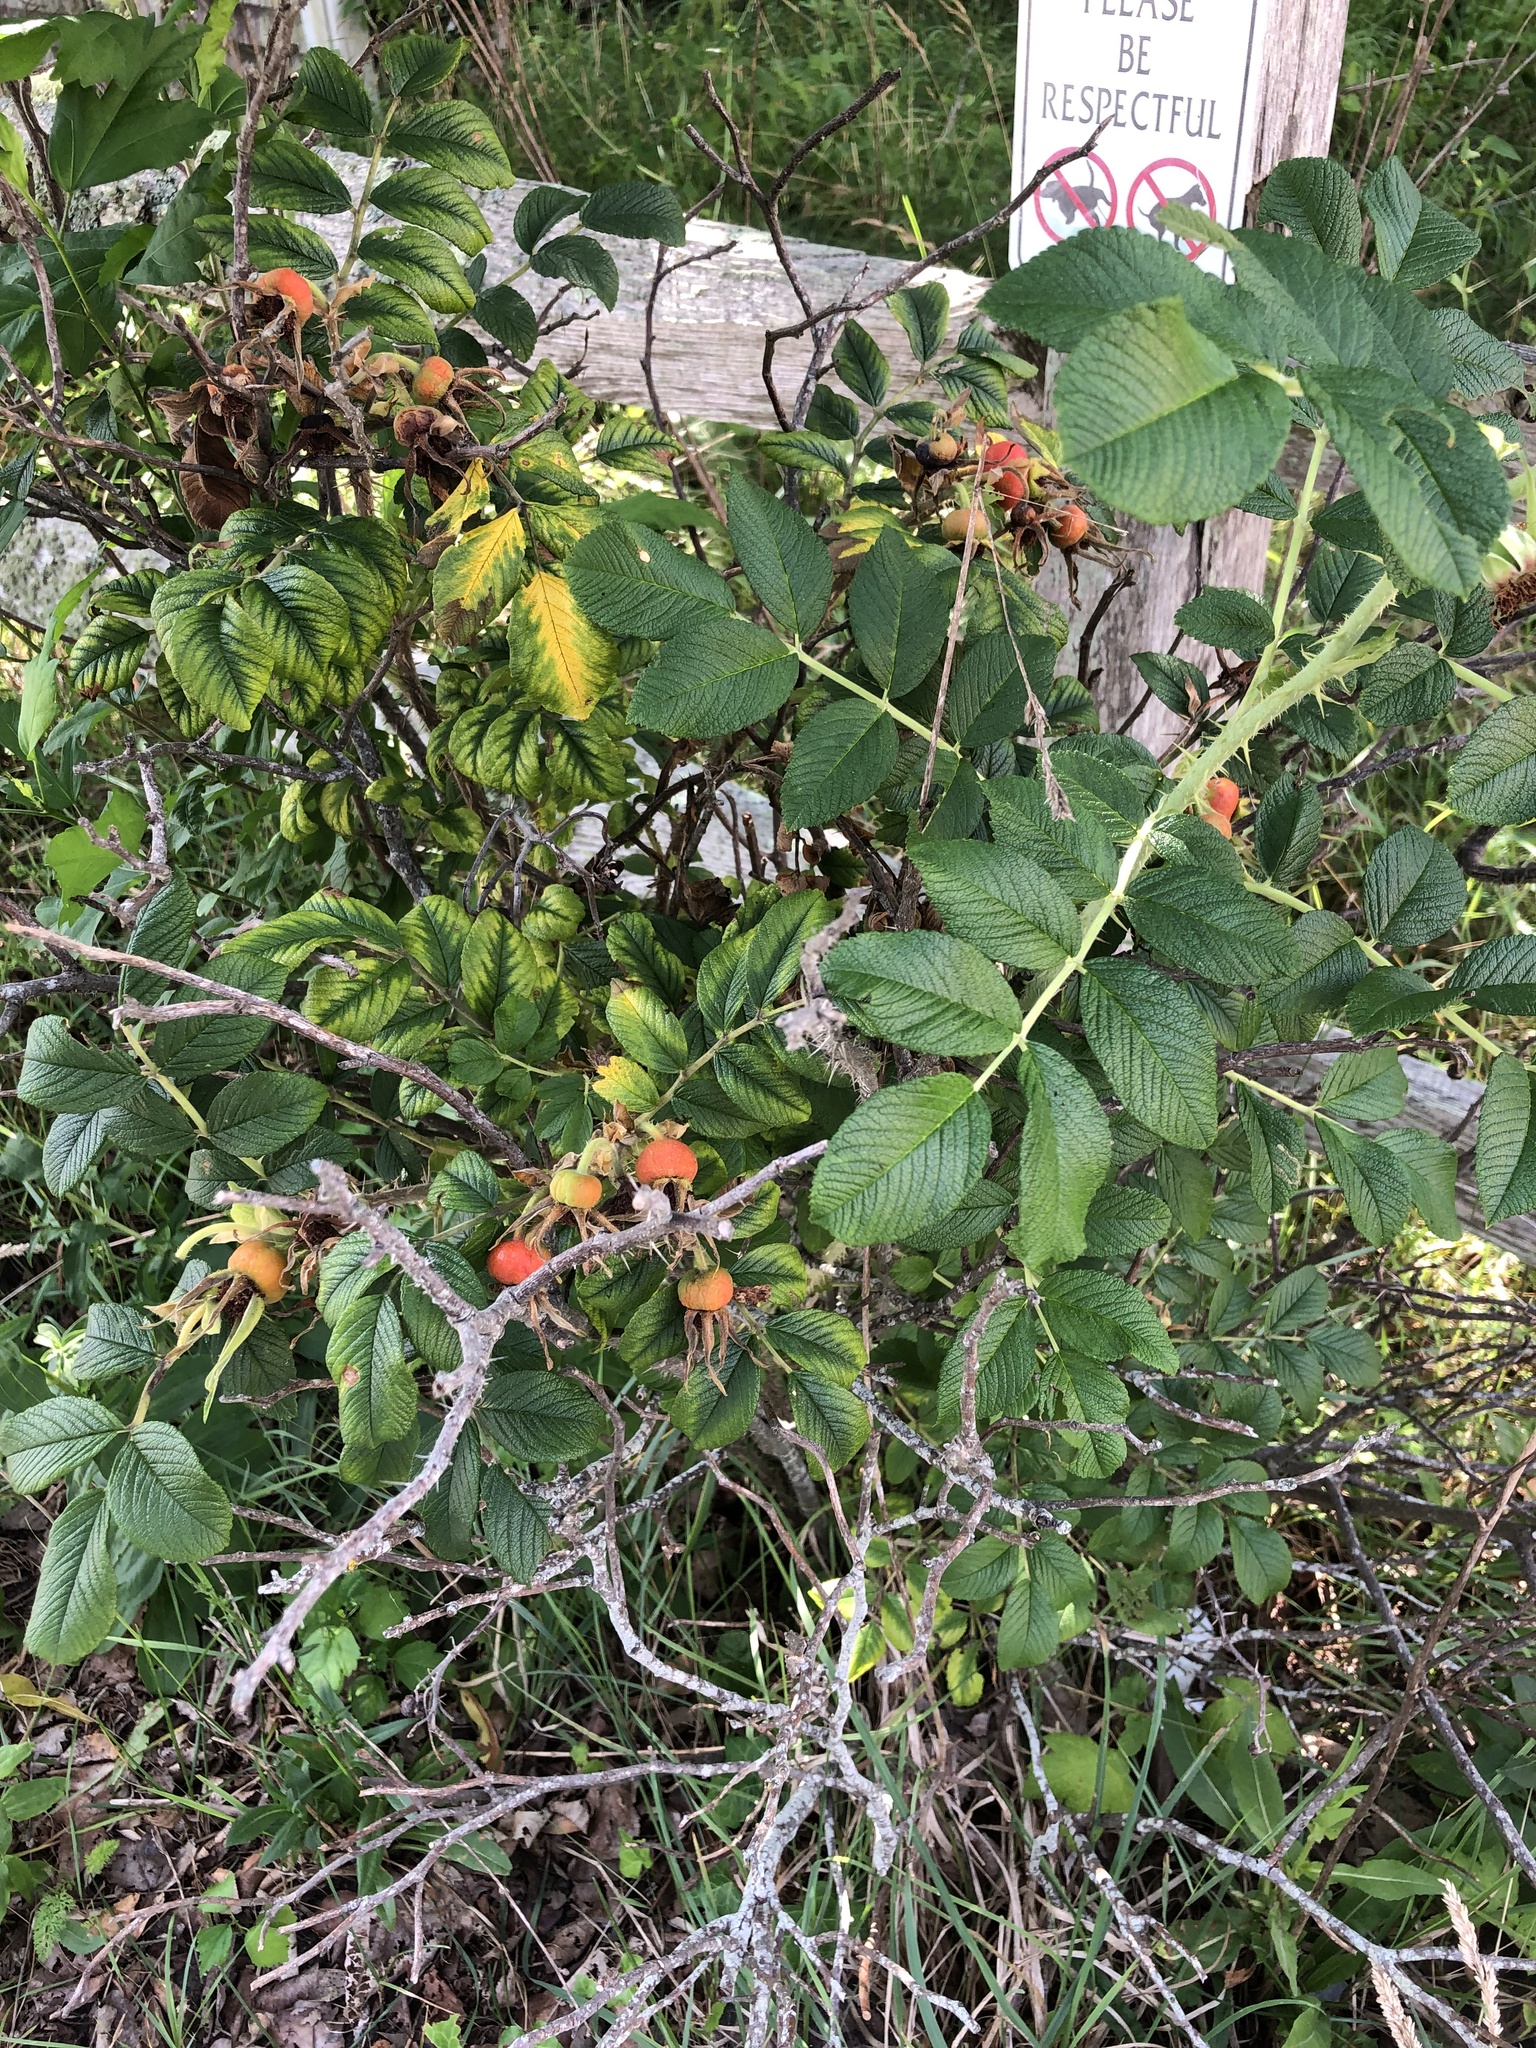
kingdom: Plantae
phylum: Tracheophyta
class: Magnoliopsida
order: Rosales
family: Rosaceae
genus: Rosa
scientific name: Rosa rugosa
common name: Japanese rose
